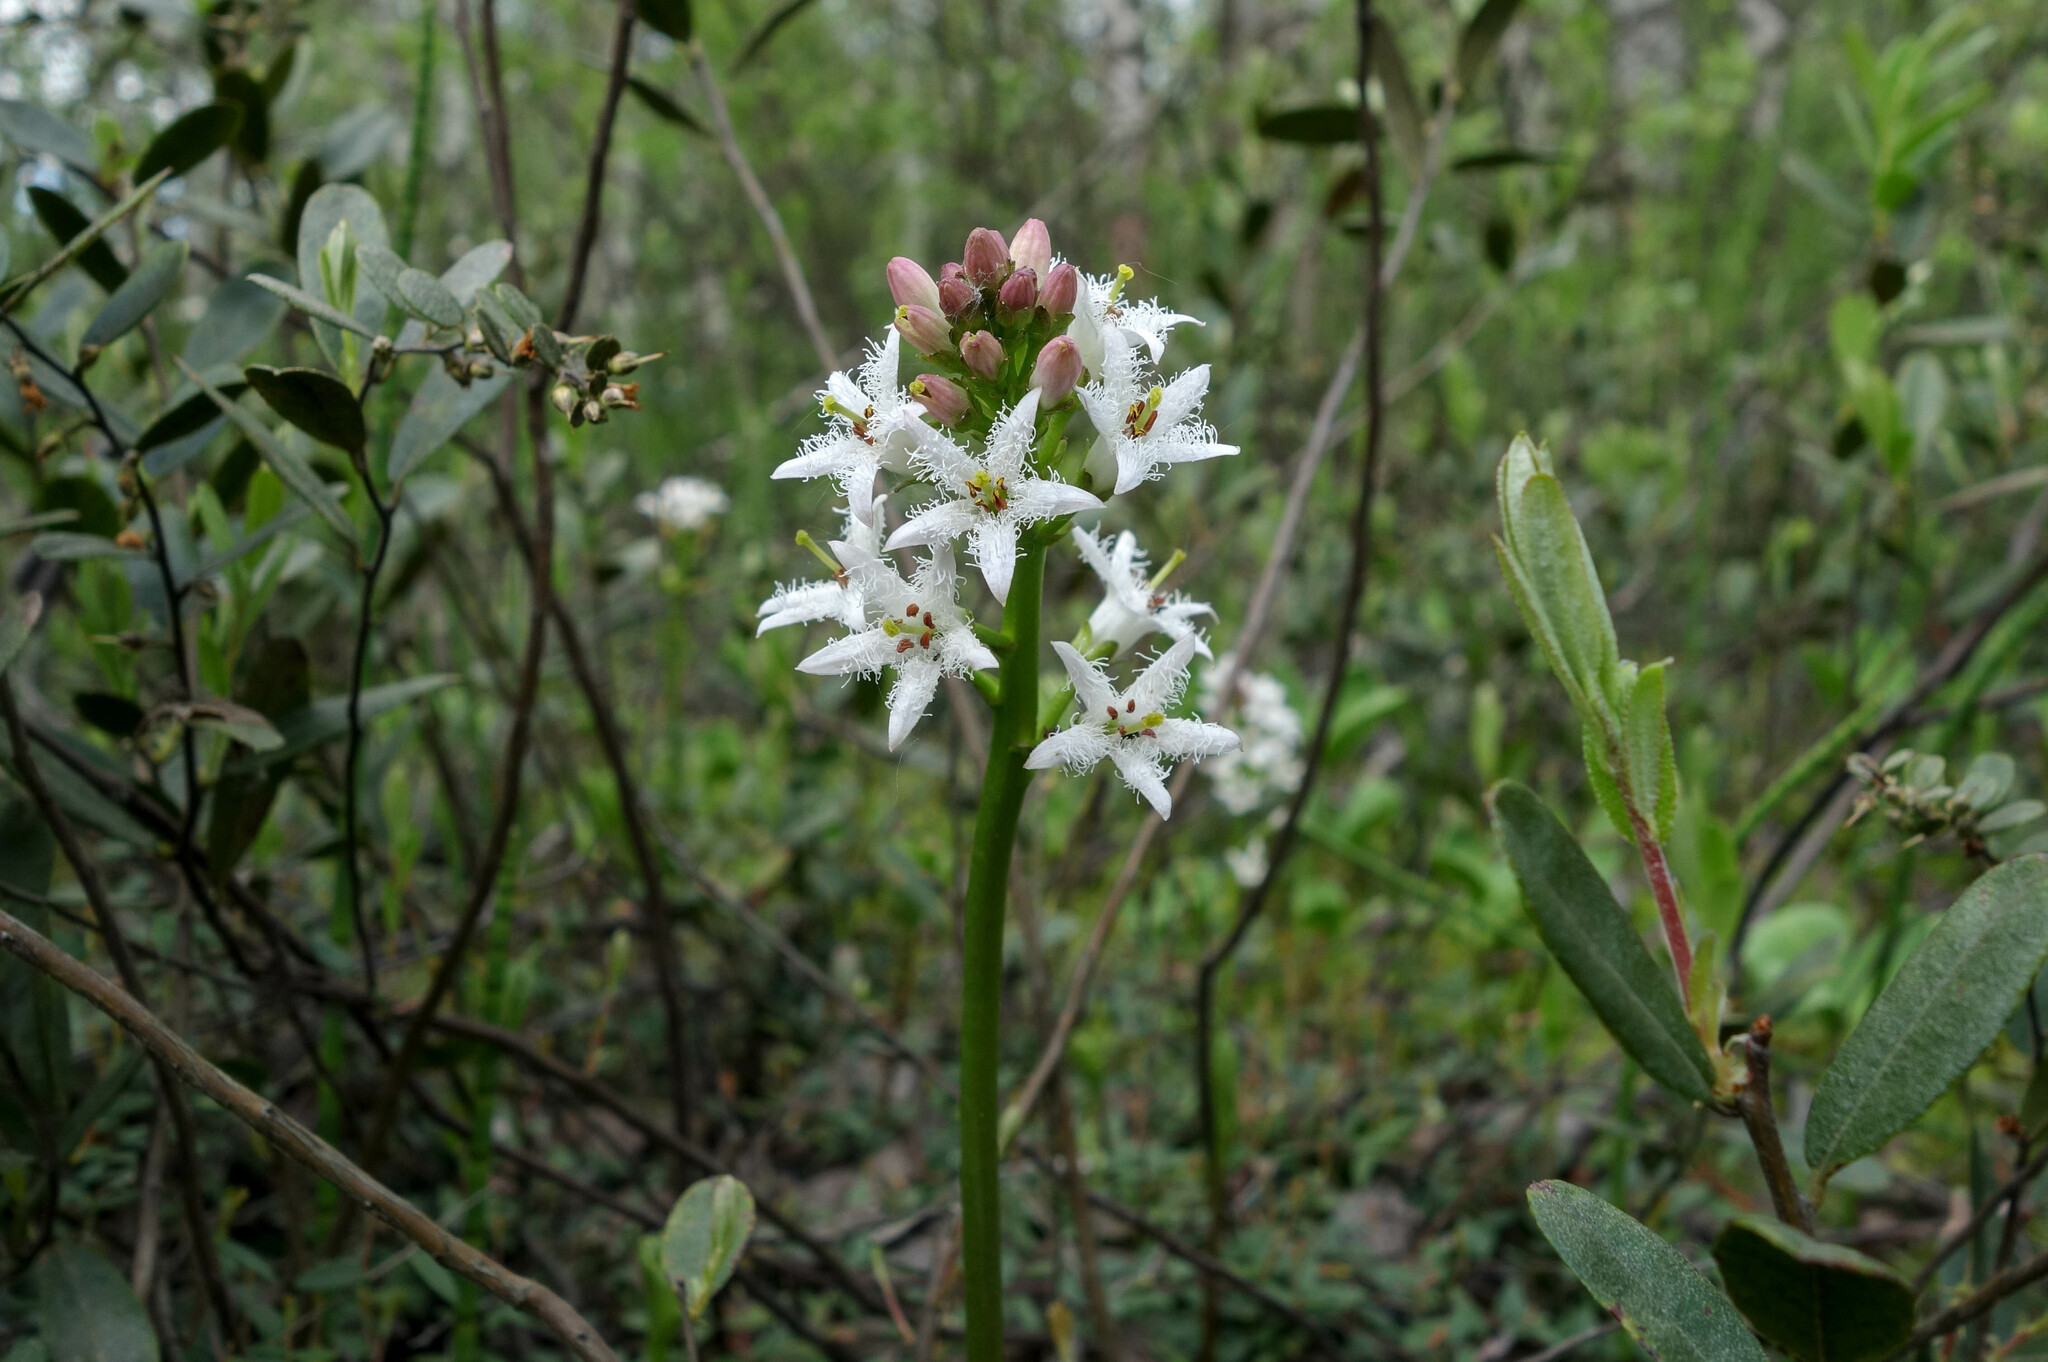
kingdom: Plantae
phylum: Tracheophyta
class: Magnoliopsida
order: Asterales
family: Menyanthaceae
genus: Menyanthes
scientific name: Menyanthes trifoliata
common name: Bogbean
